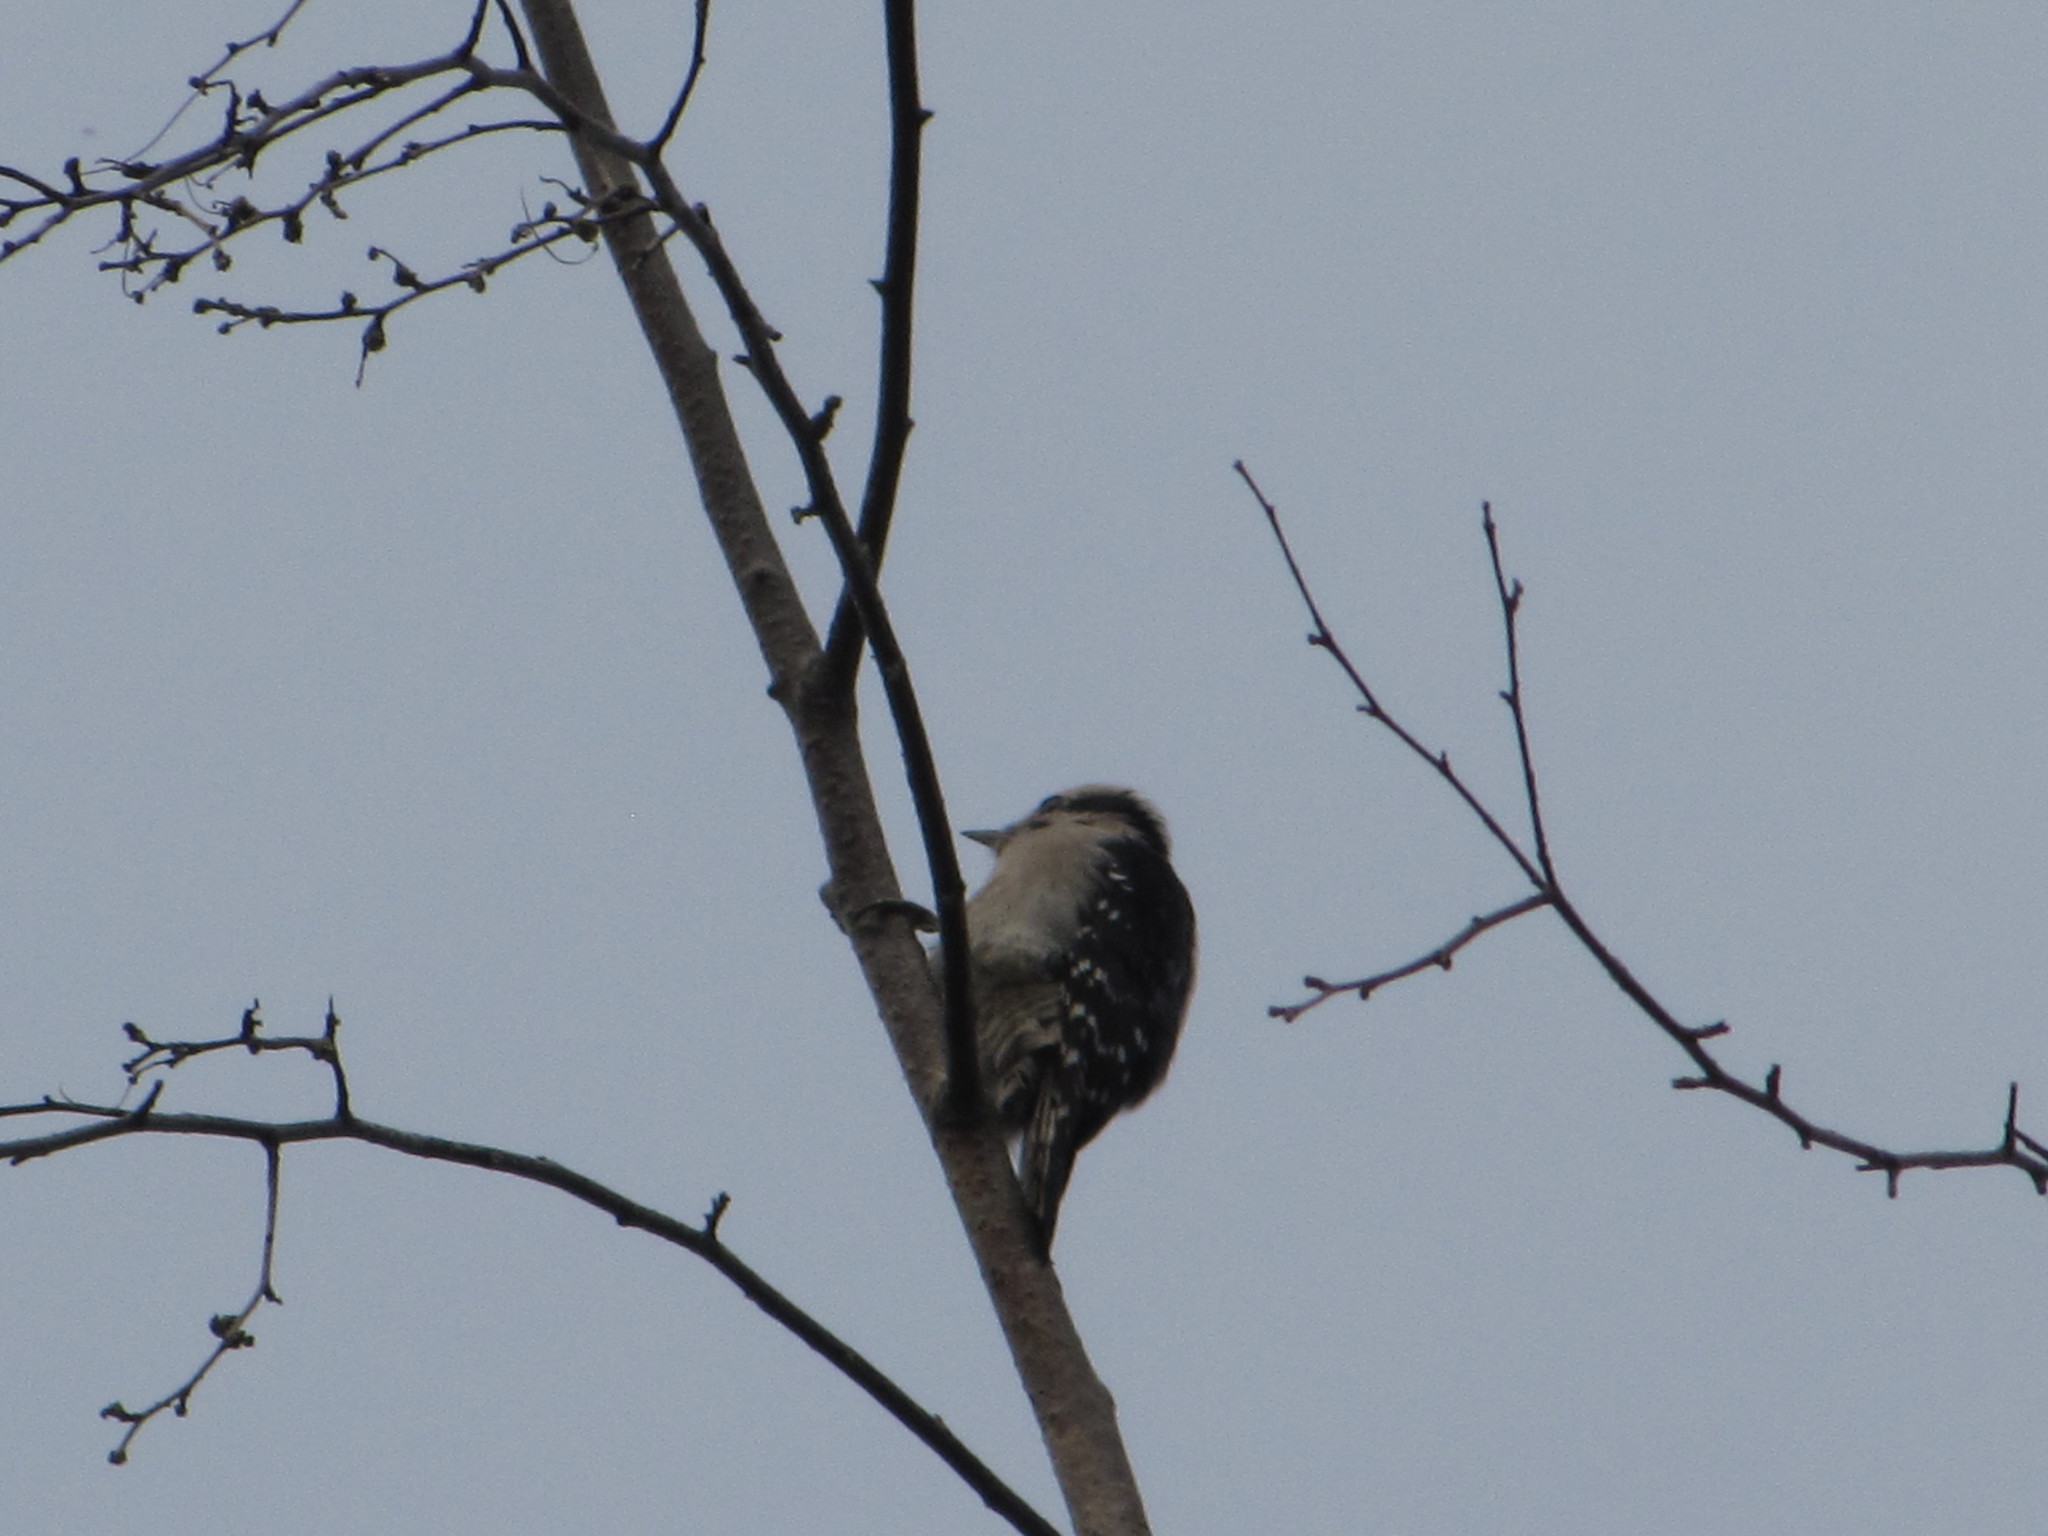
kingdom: Animalia
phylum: Chordata
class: Aves
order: Piciformes
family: Picidae
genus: Dryobates
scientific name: Dryobates pubescens
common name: Downy woodpecker
